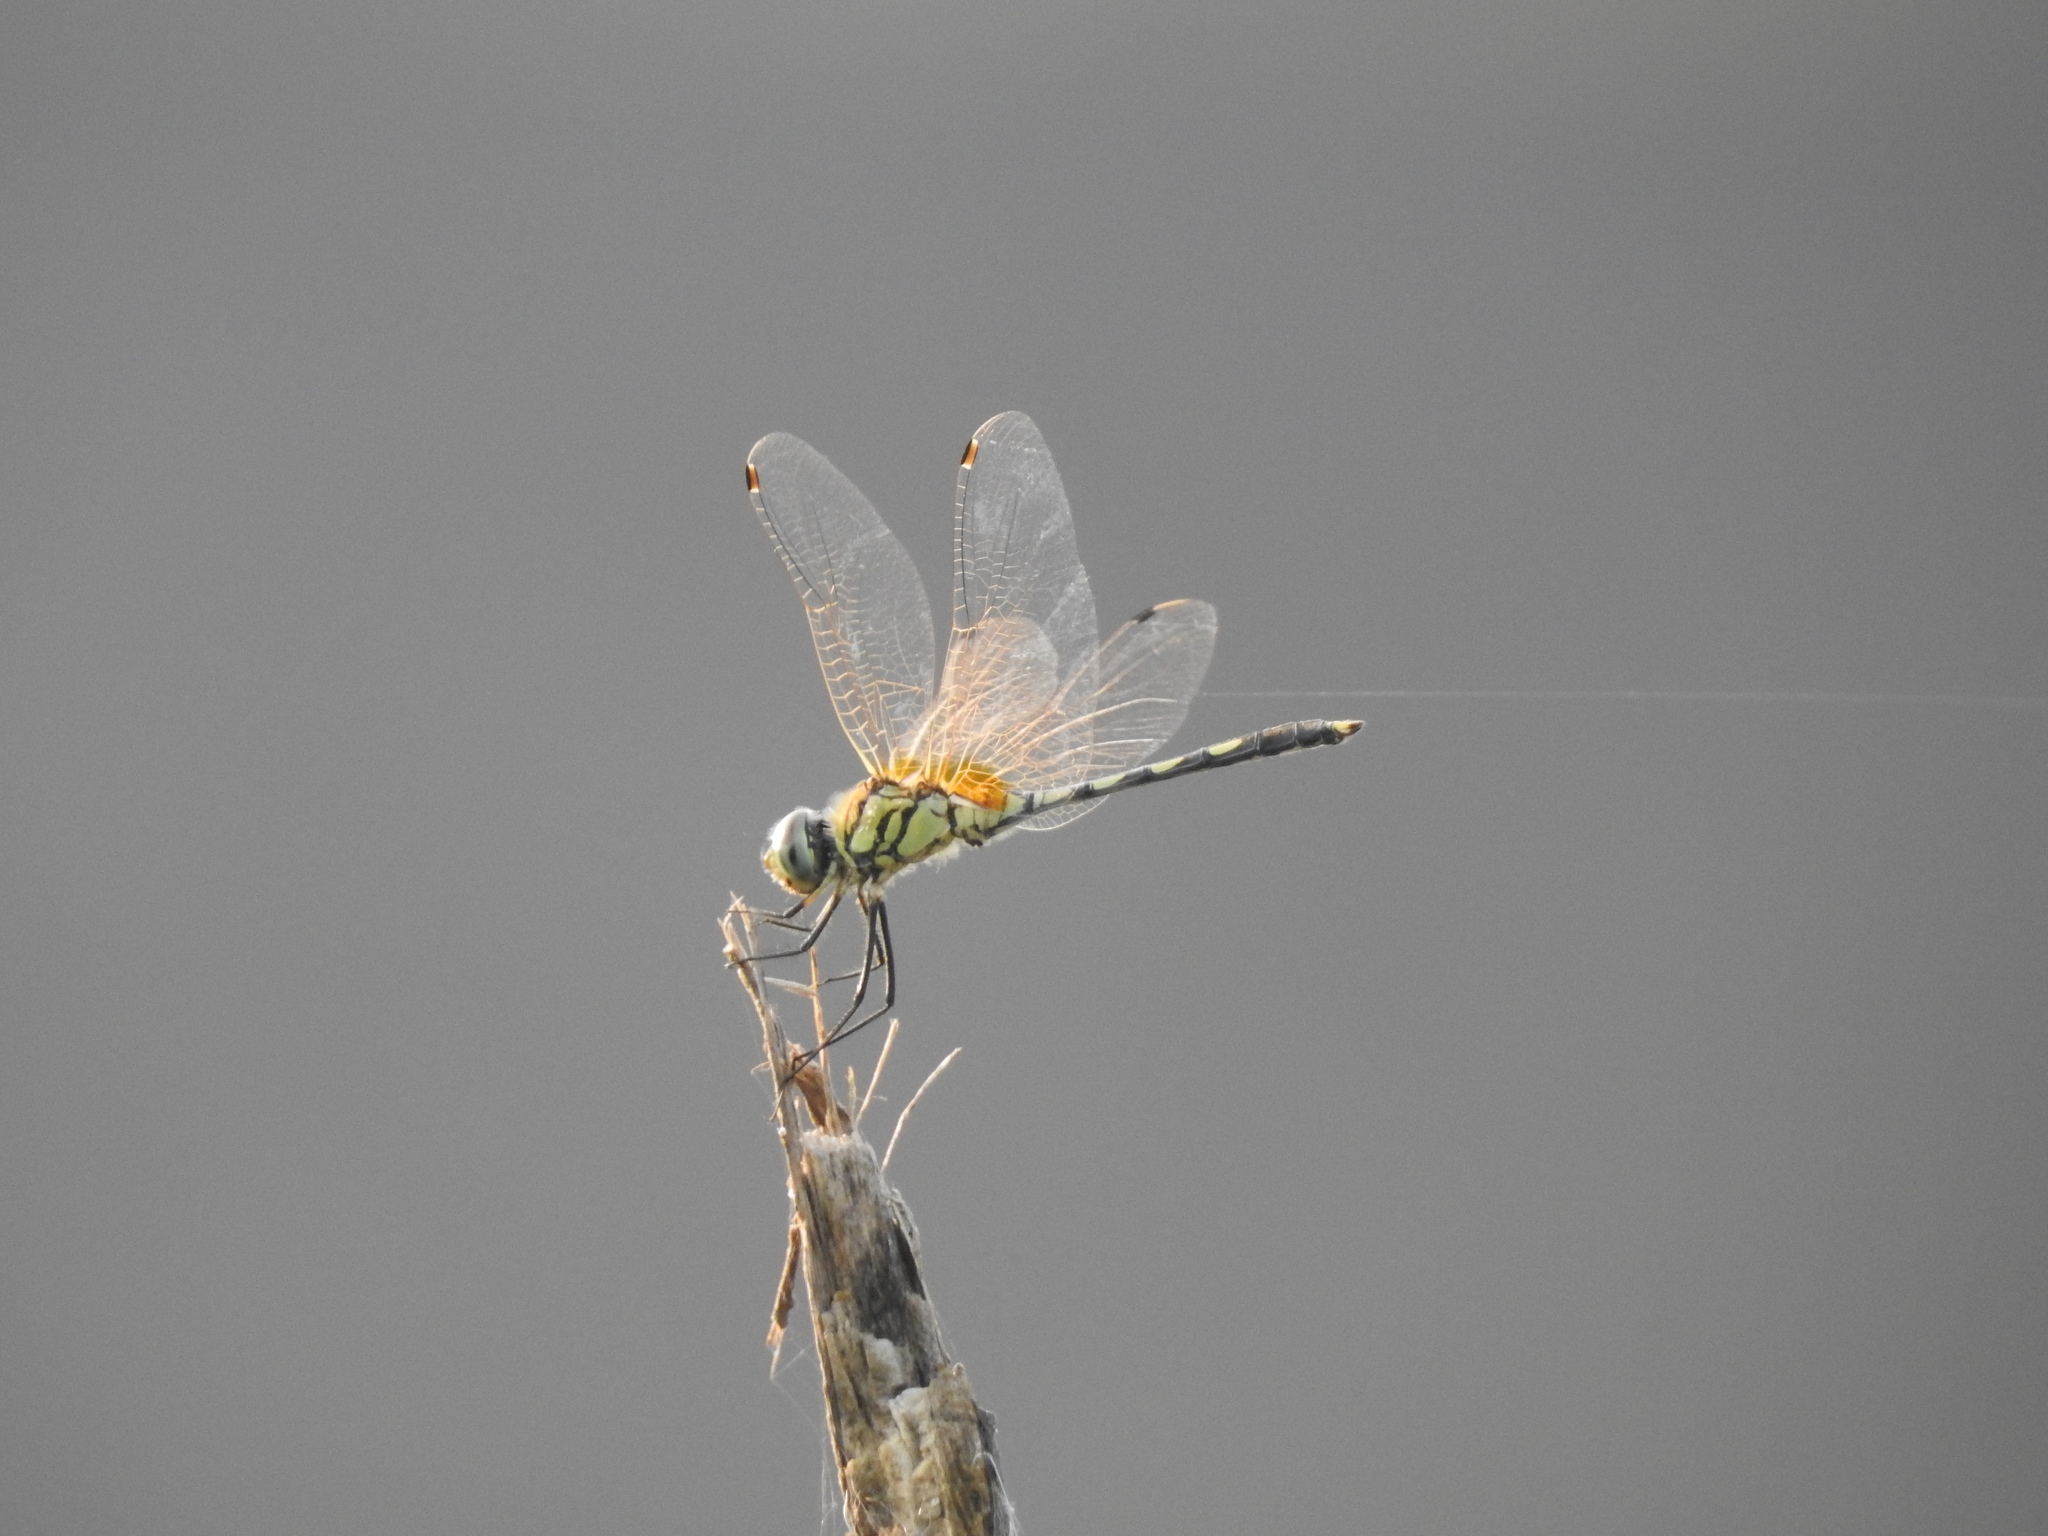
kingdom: Animalia
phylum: Arthropoda
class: Insecta
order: Odonata
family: Libellulidae
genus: Trithemis
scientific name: Trithemis pallidinervis
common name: Dancing dropwing
